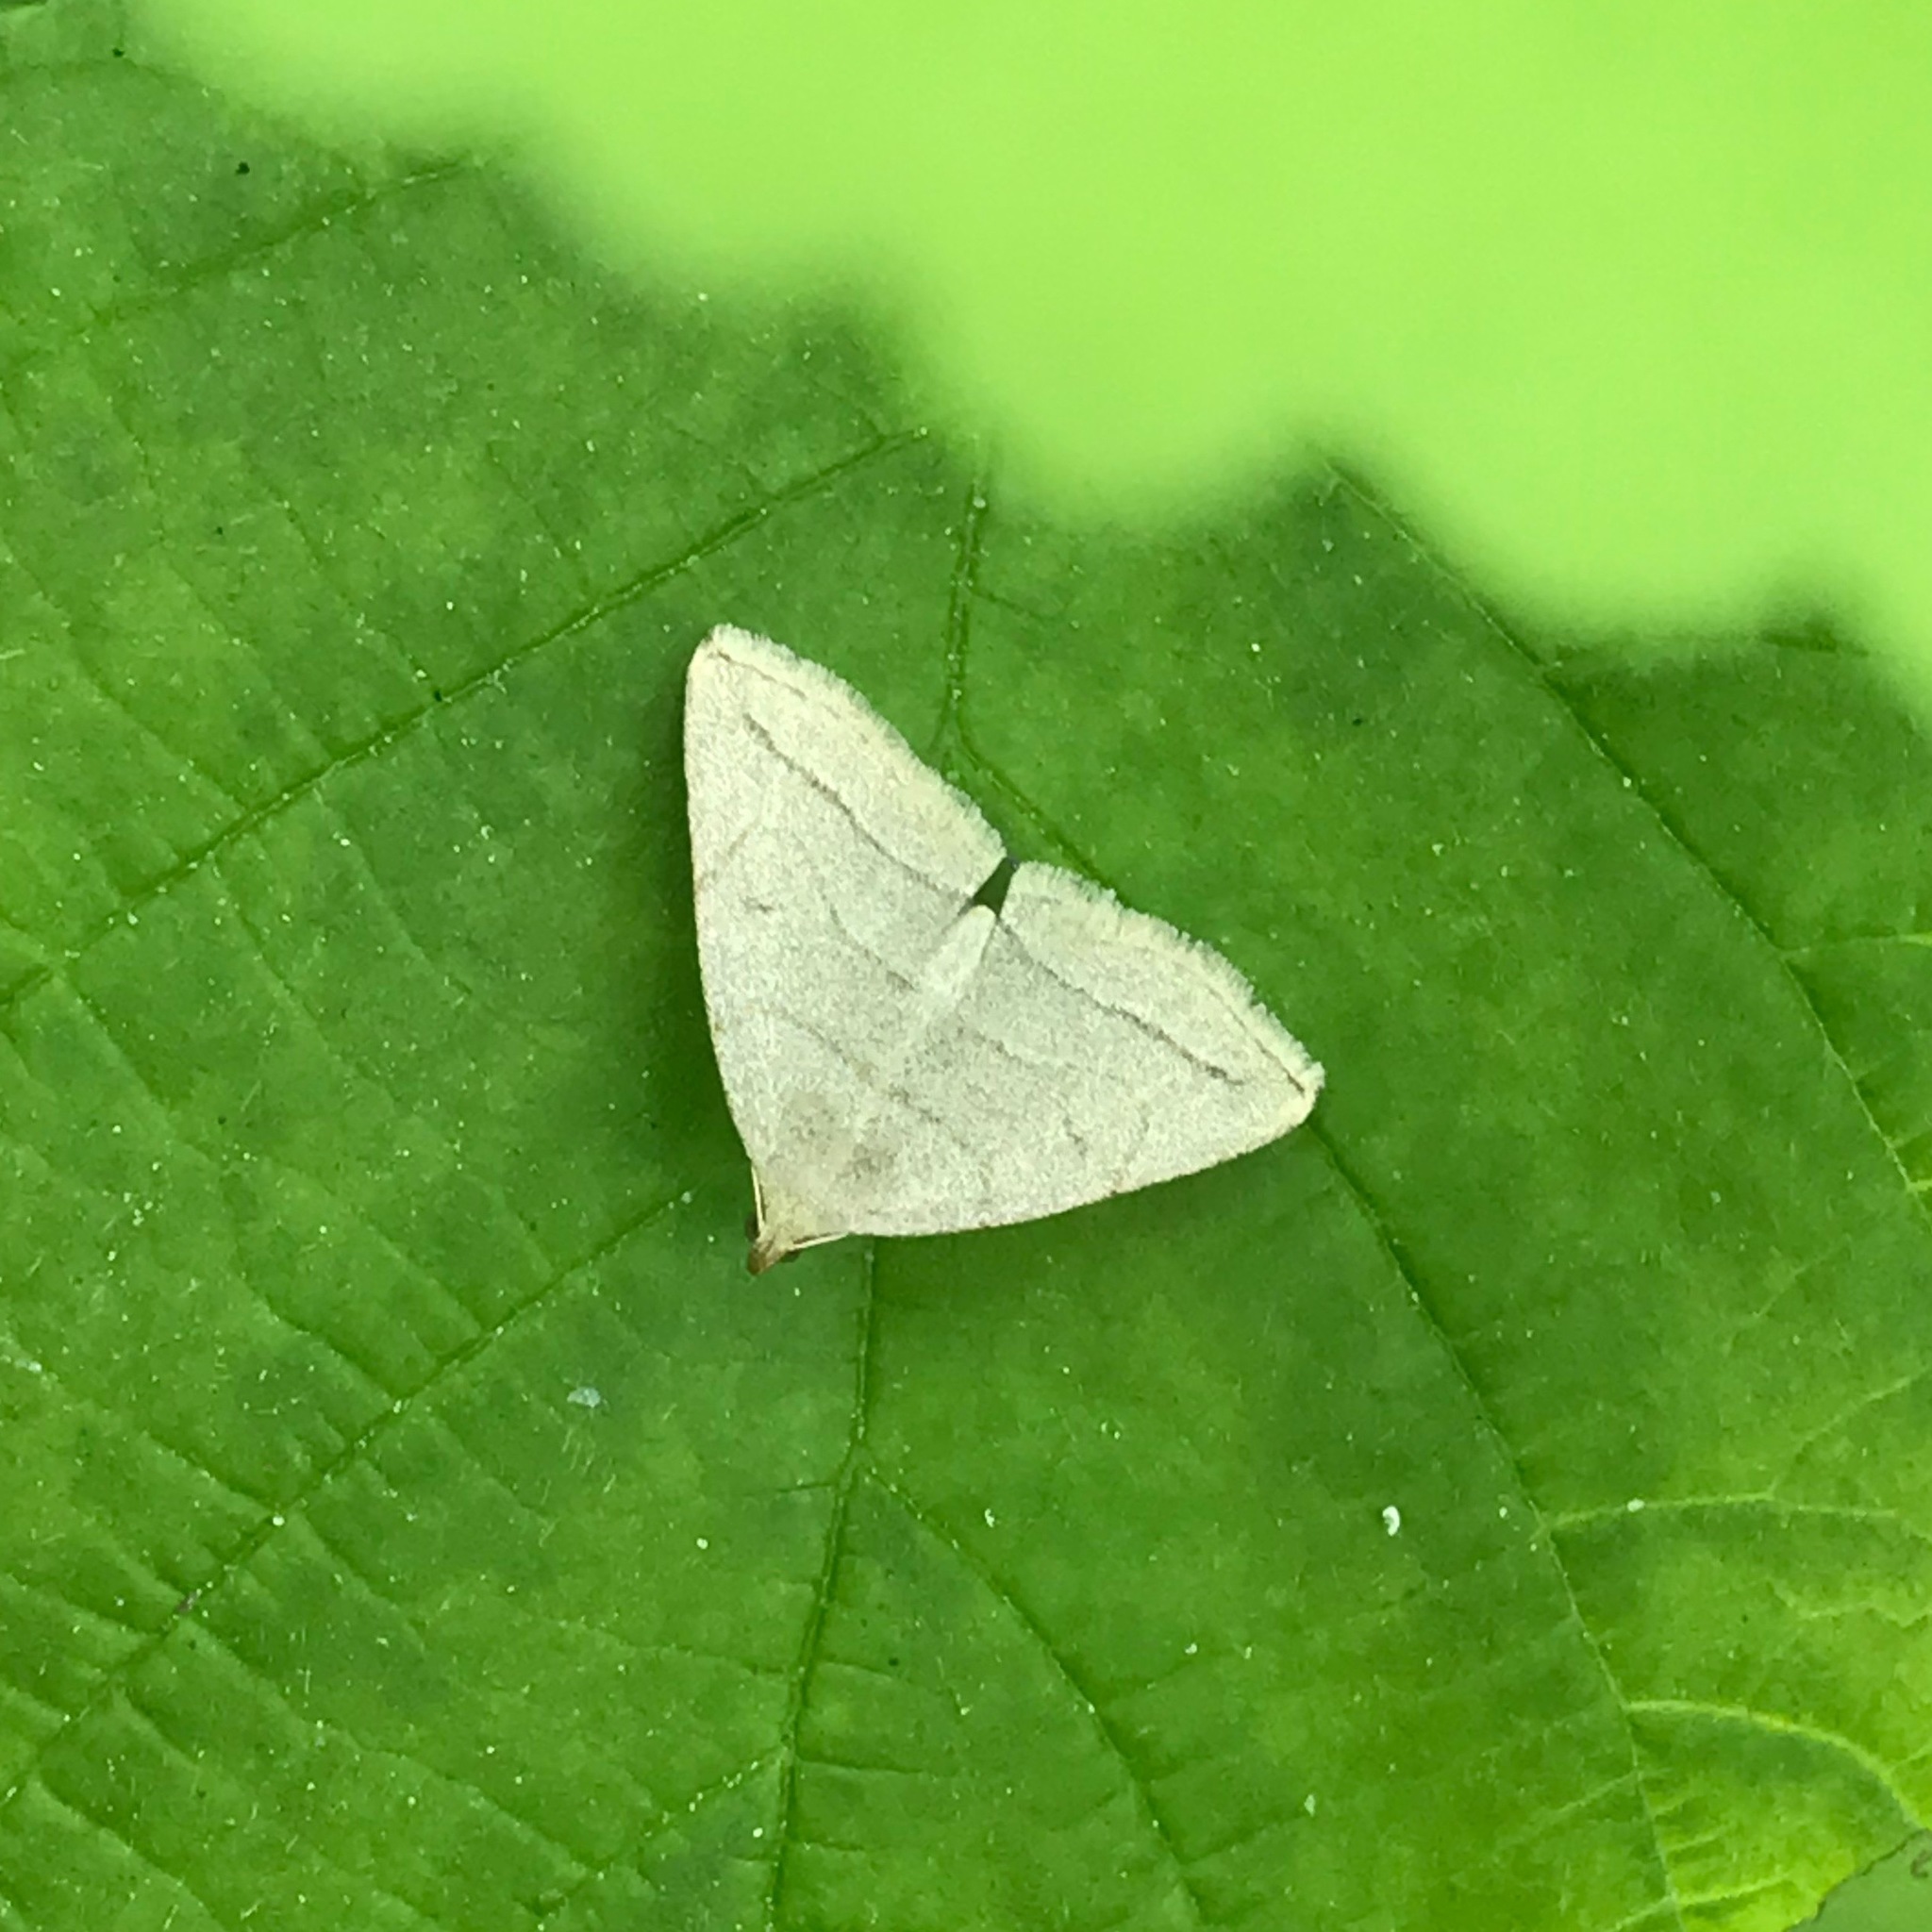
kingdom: Animalia
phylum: Arthropoda
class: Insecta
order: Lepidoptera
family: Erebidae
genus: Zanclognatha
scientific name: Zanclognatha pedipilalis
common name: Grayish fan-foot
